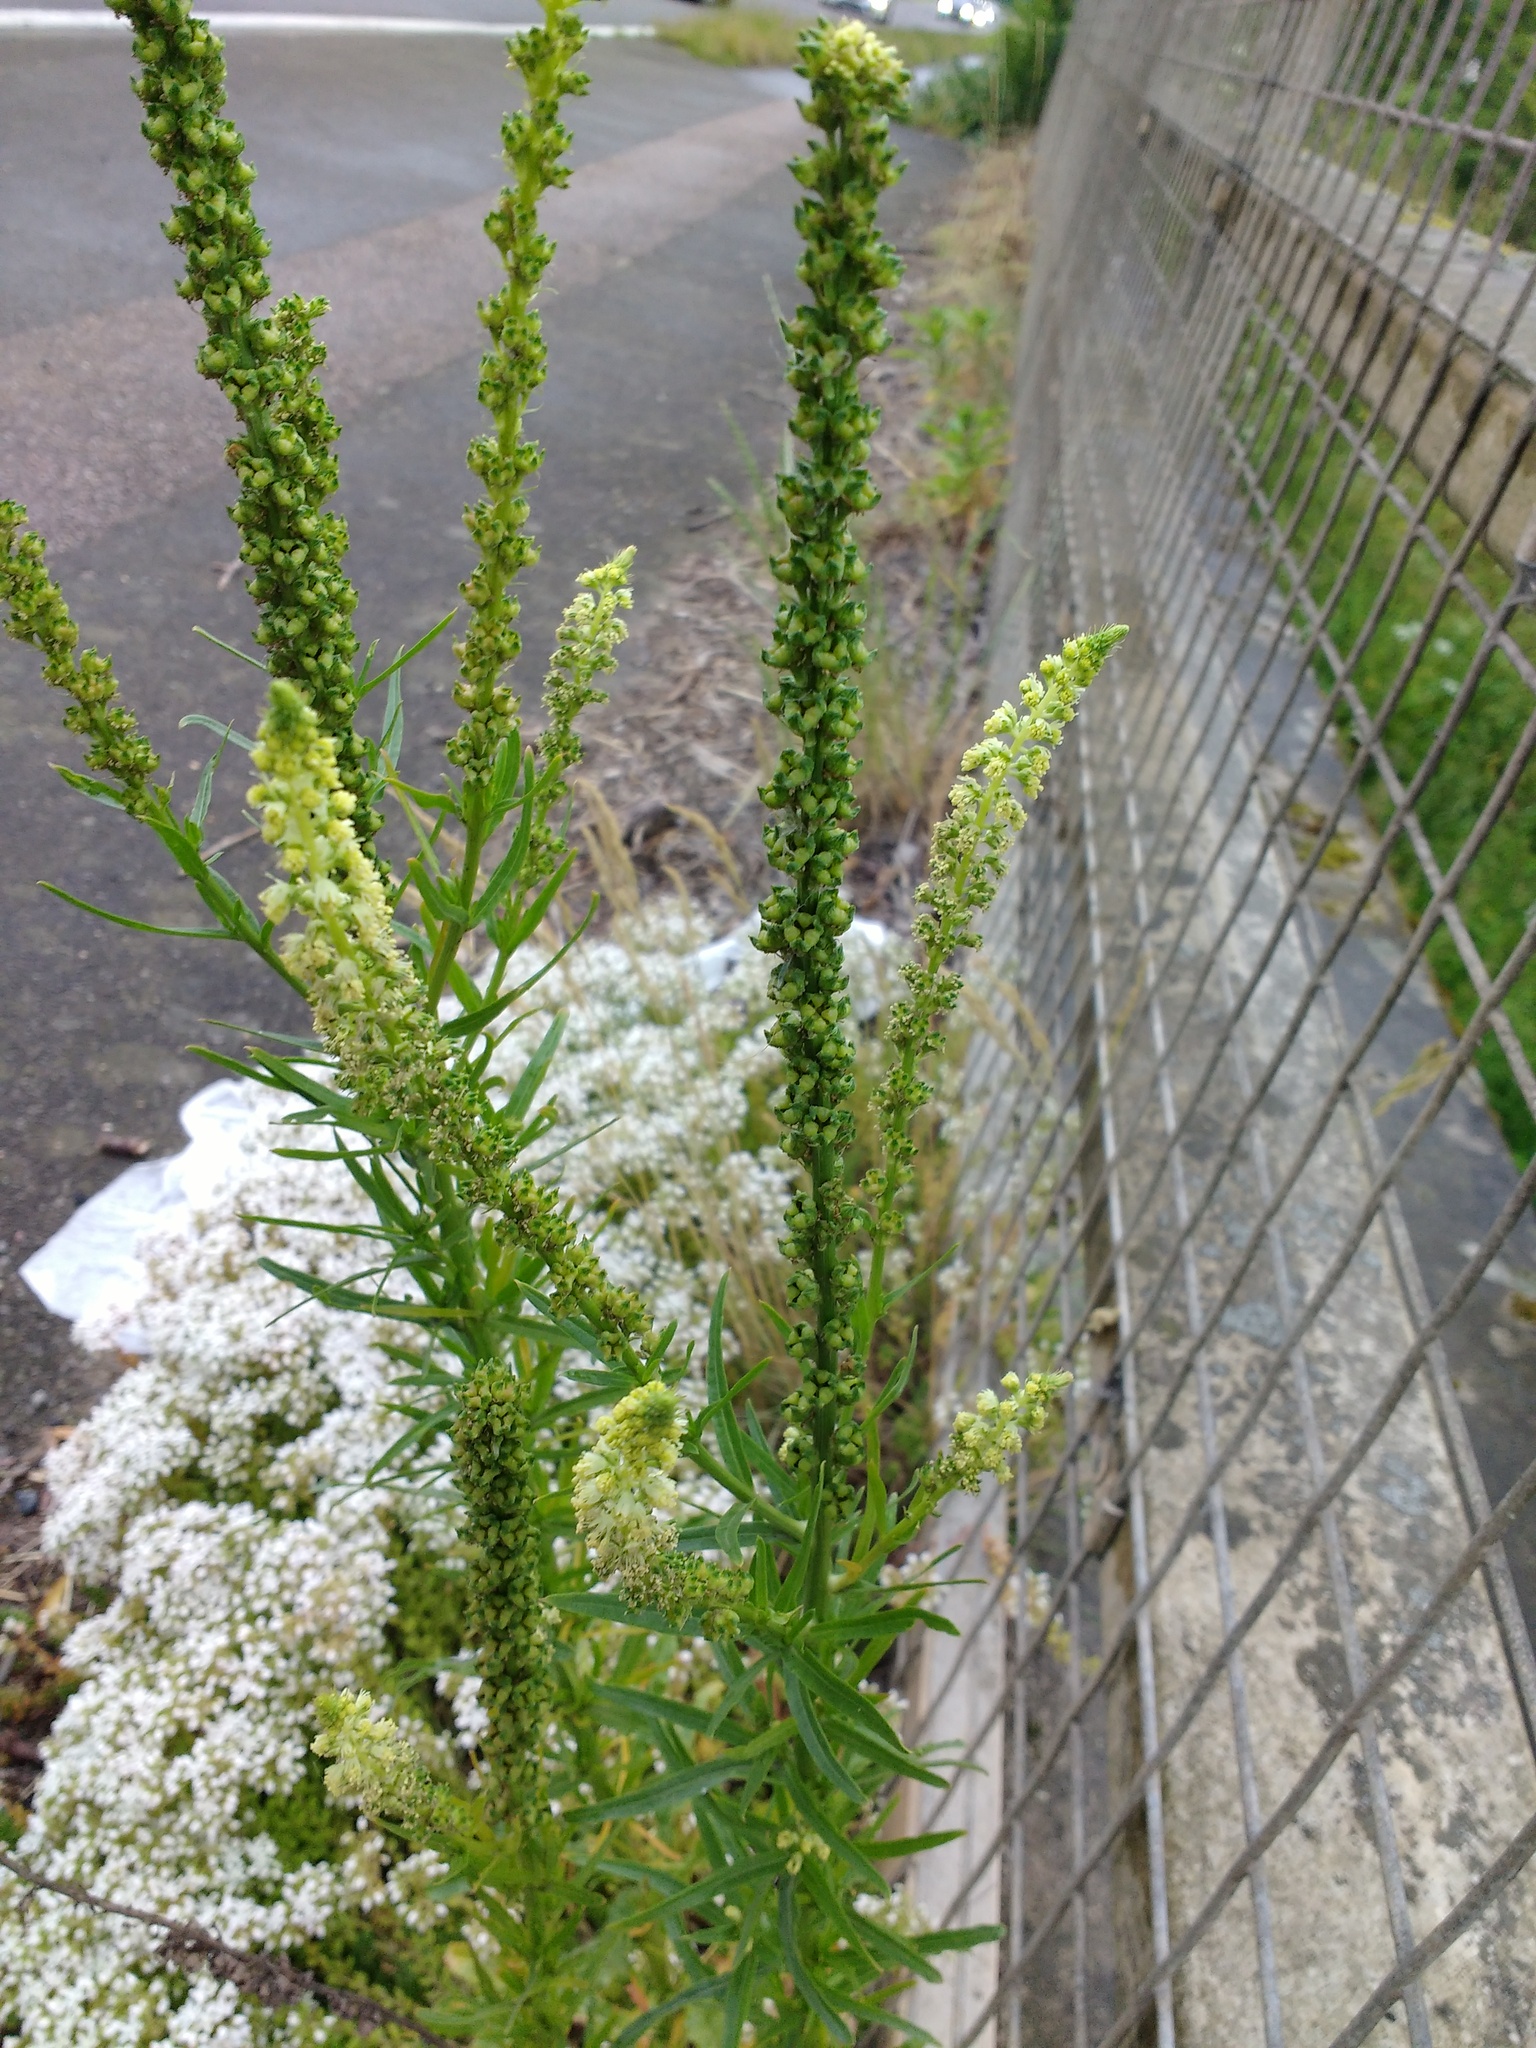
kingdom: Plantae
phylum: Tracheophyta
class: Magnoliopsida
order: Brassicales
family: Resedaceae
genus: Reseda
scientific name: Reseda luteola
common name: Weld
